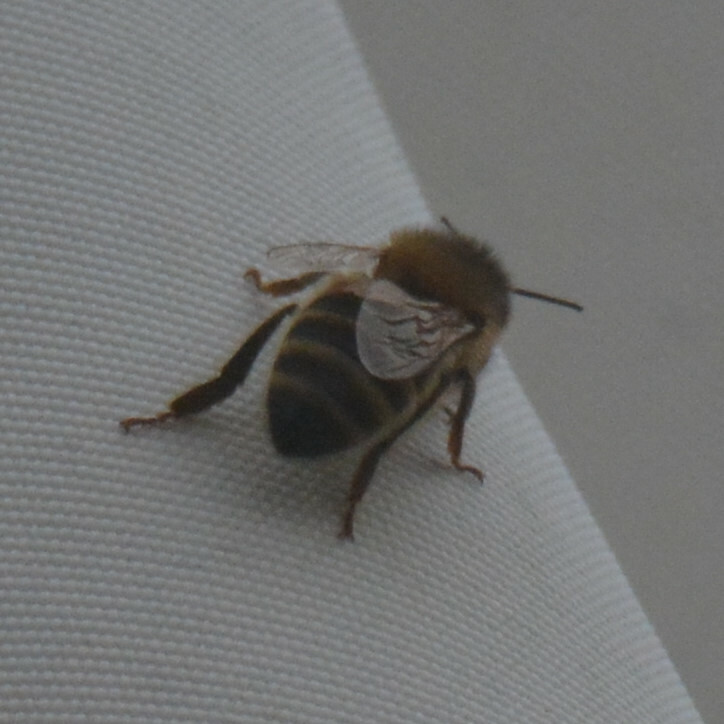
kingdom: Animalia
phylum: Arthropoda
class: Insecta
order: Hymenoptera
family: Apidae
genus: Apis
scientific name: Apis mellifera
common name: Honey bee
